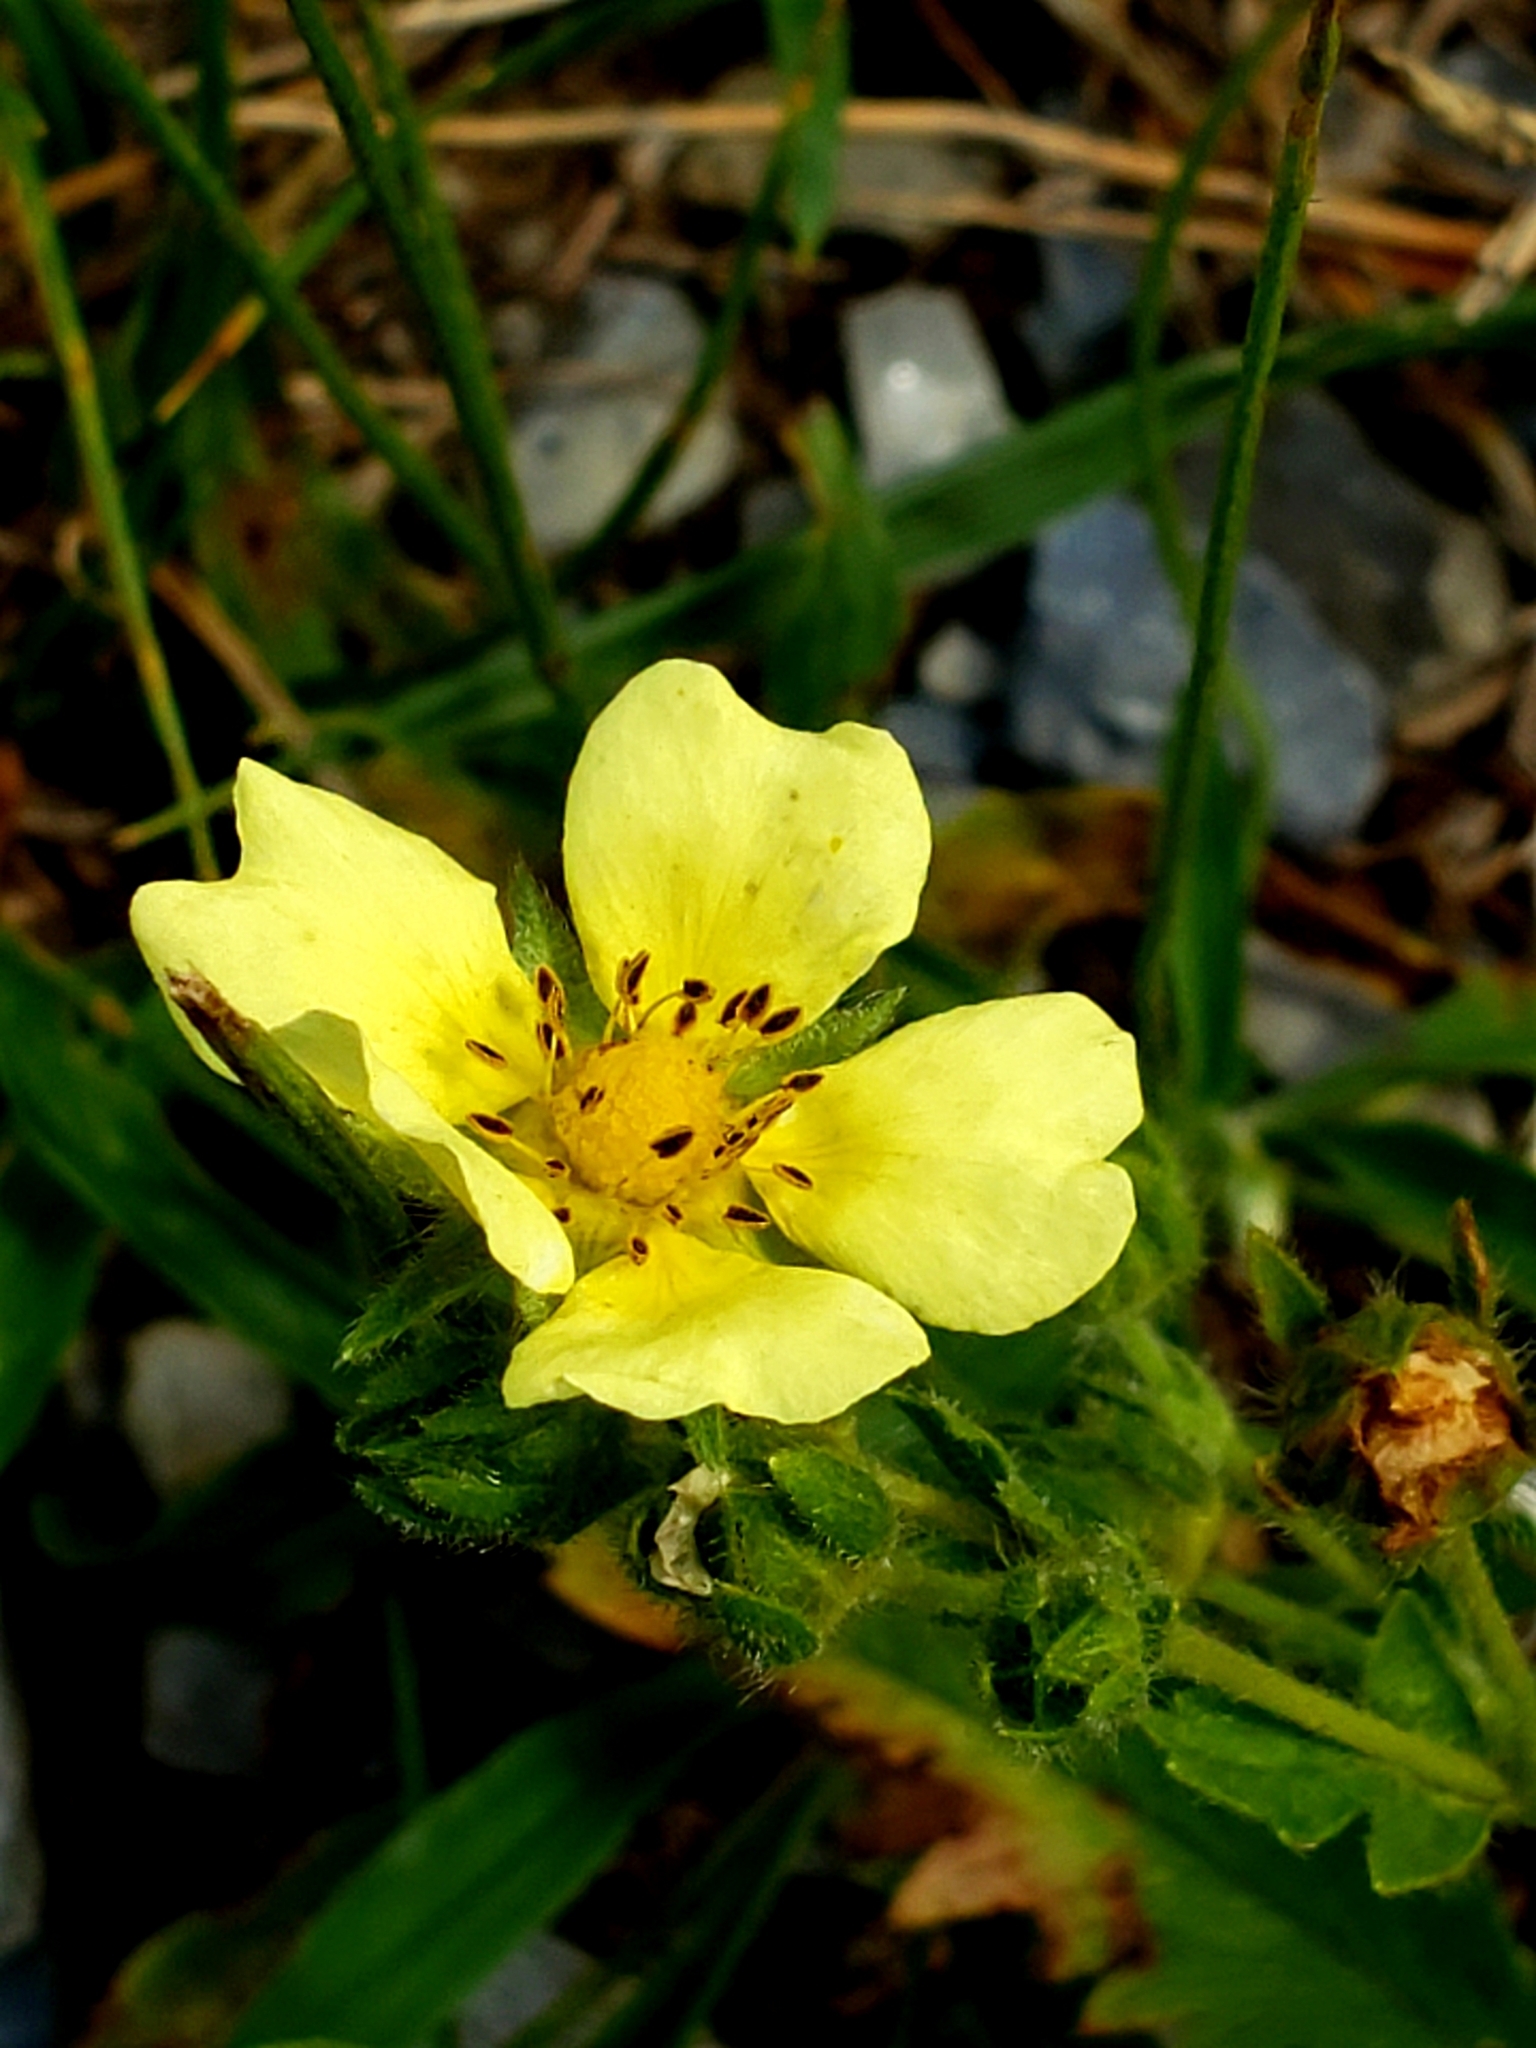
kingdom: Plantae
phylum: Tracheophyta
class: Magnoliopsida
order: Rosales
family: Rosaceae
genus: Potentilla
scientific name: Potentilla recta
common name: Sulphur cinquefoil
